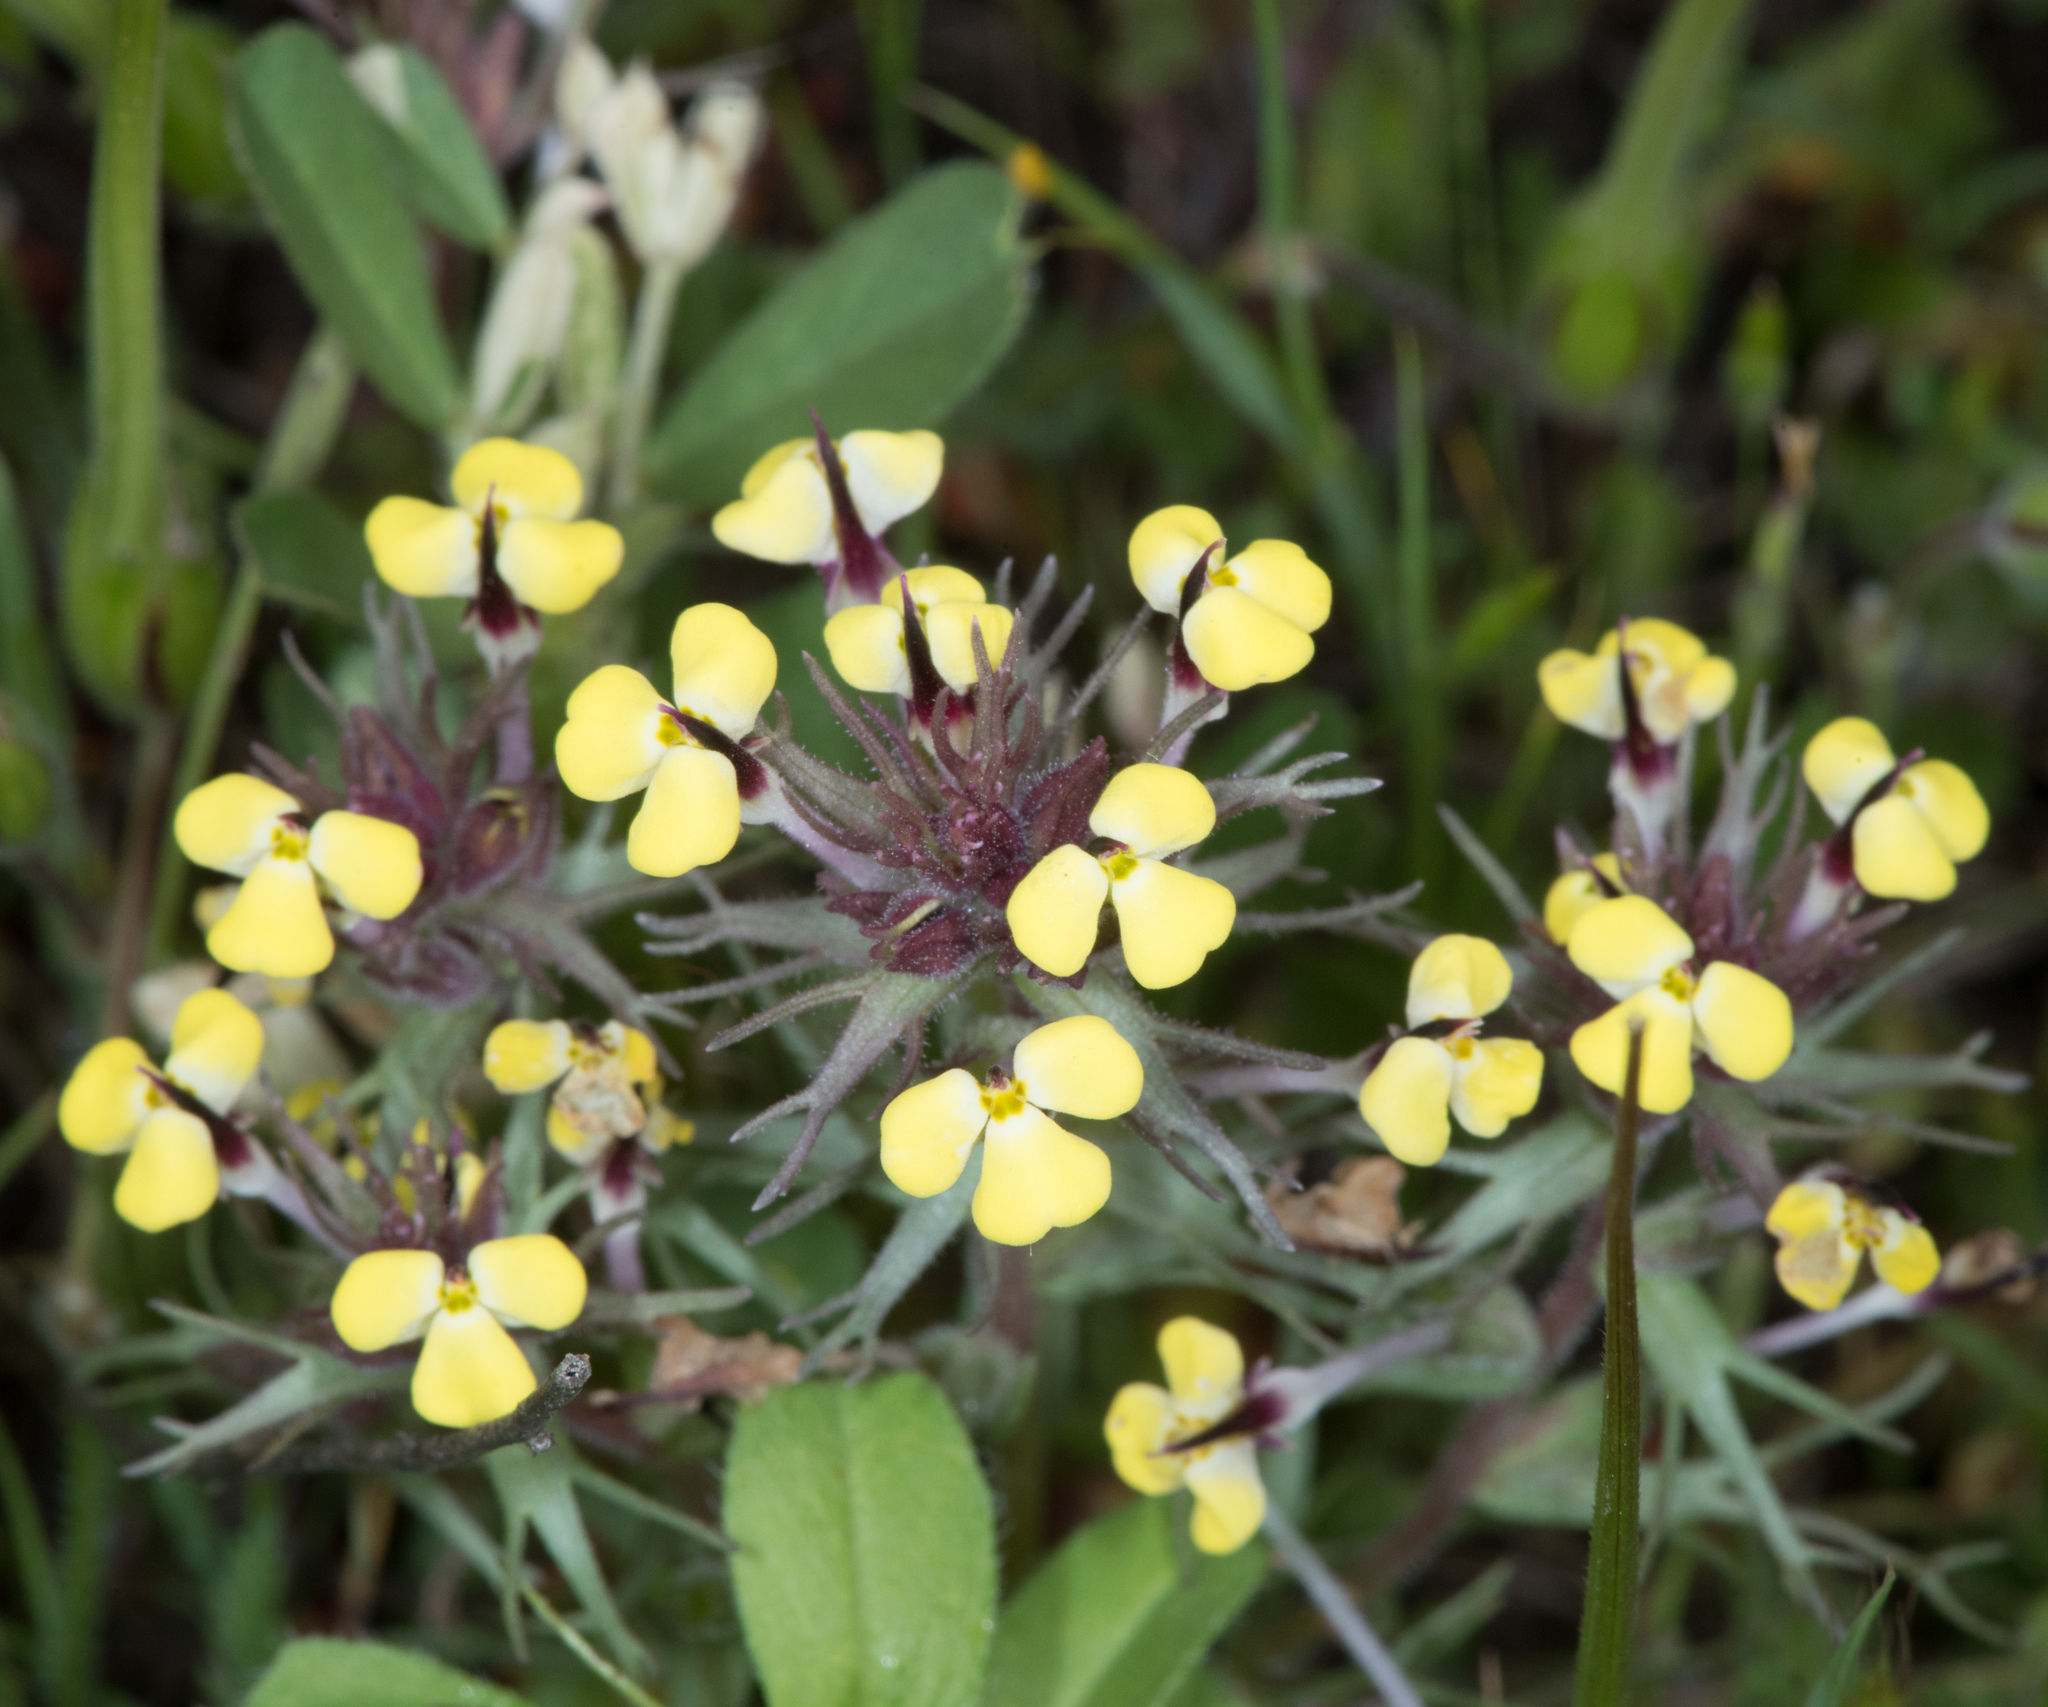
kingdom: Plantae
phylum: Tracheophyta
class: Magnoliopsida
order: Lamiales
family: Orobanchaceae
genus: Triphysaria
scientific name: Triphysaria eriantha
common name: Johnny-tuck
